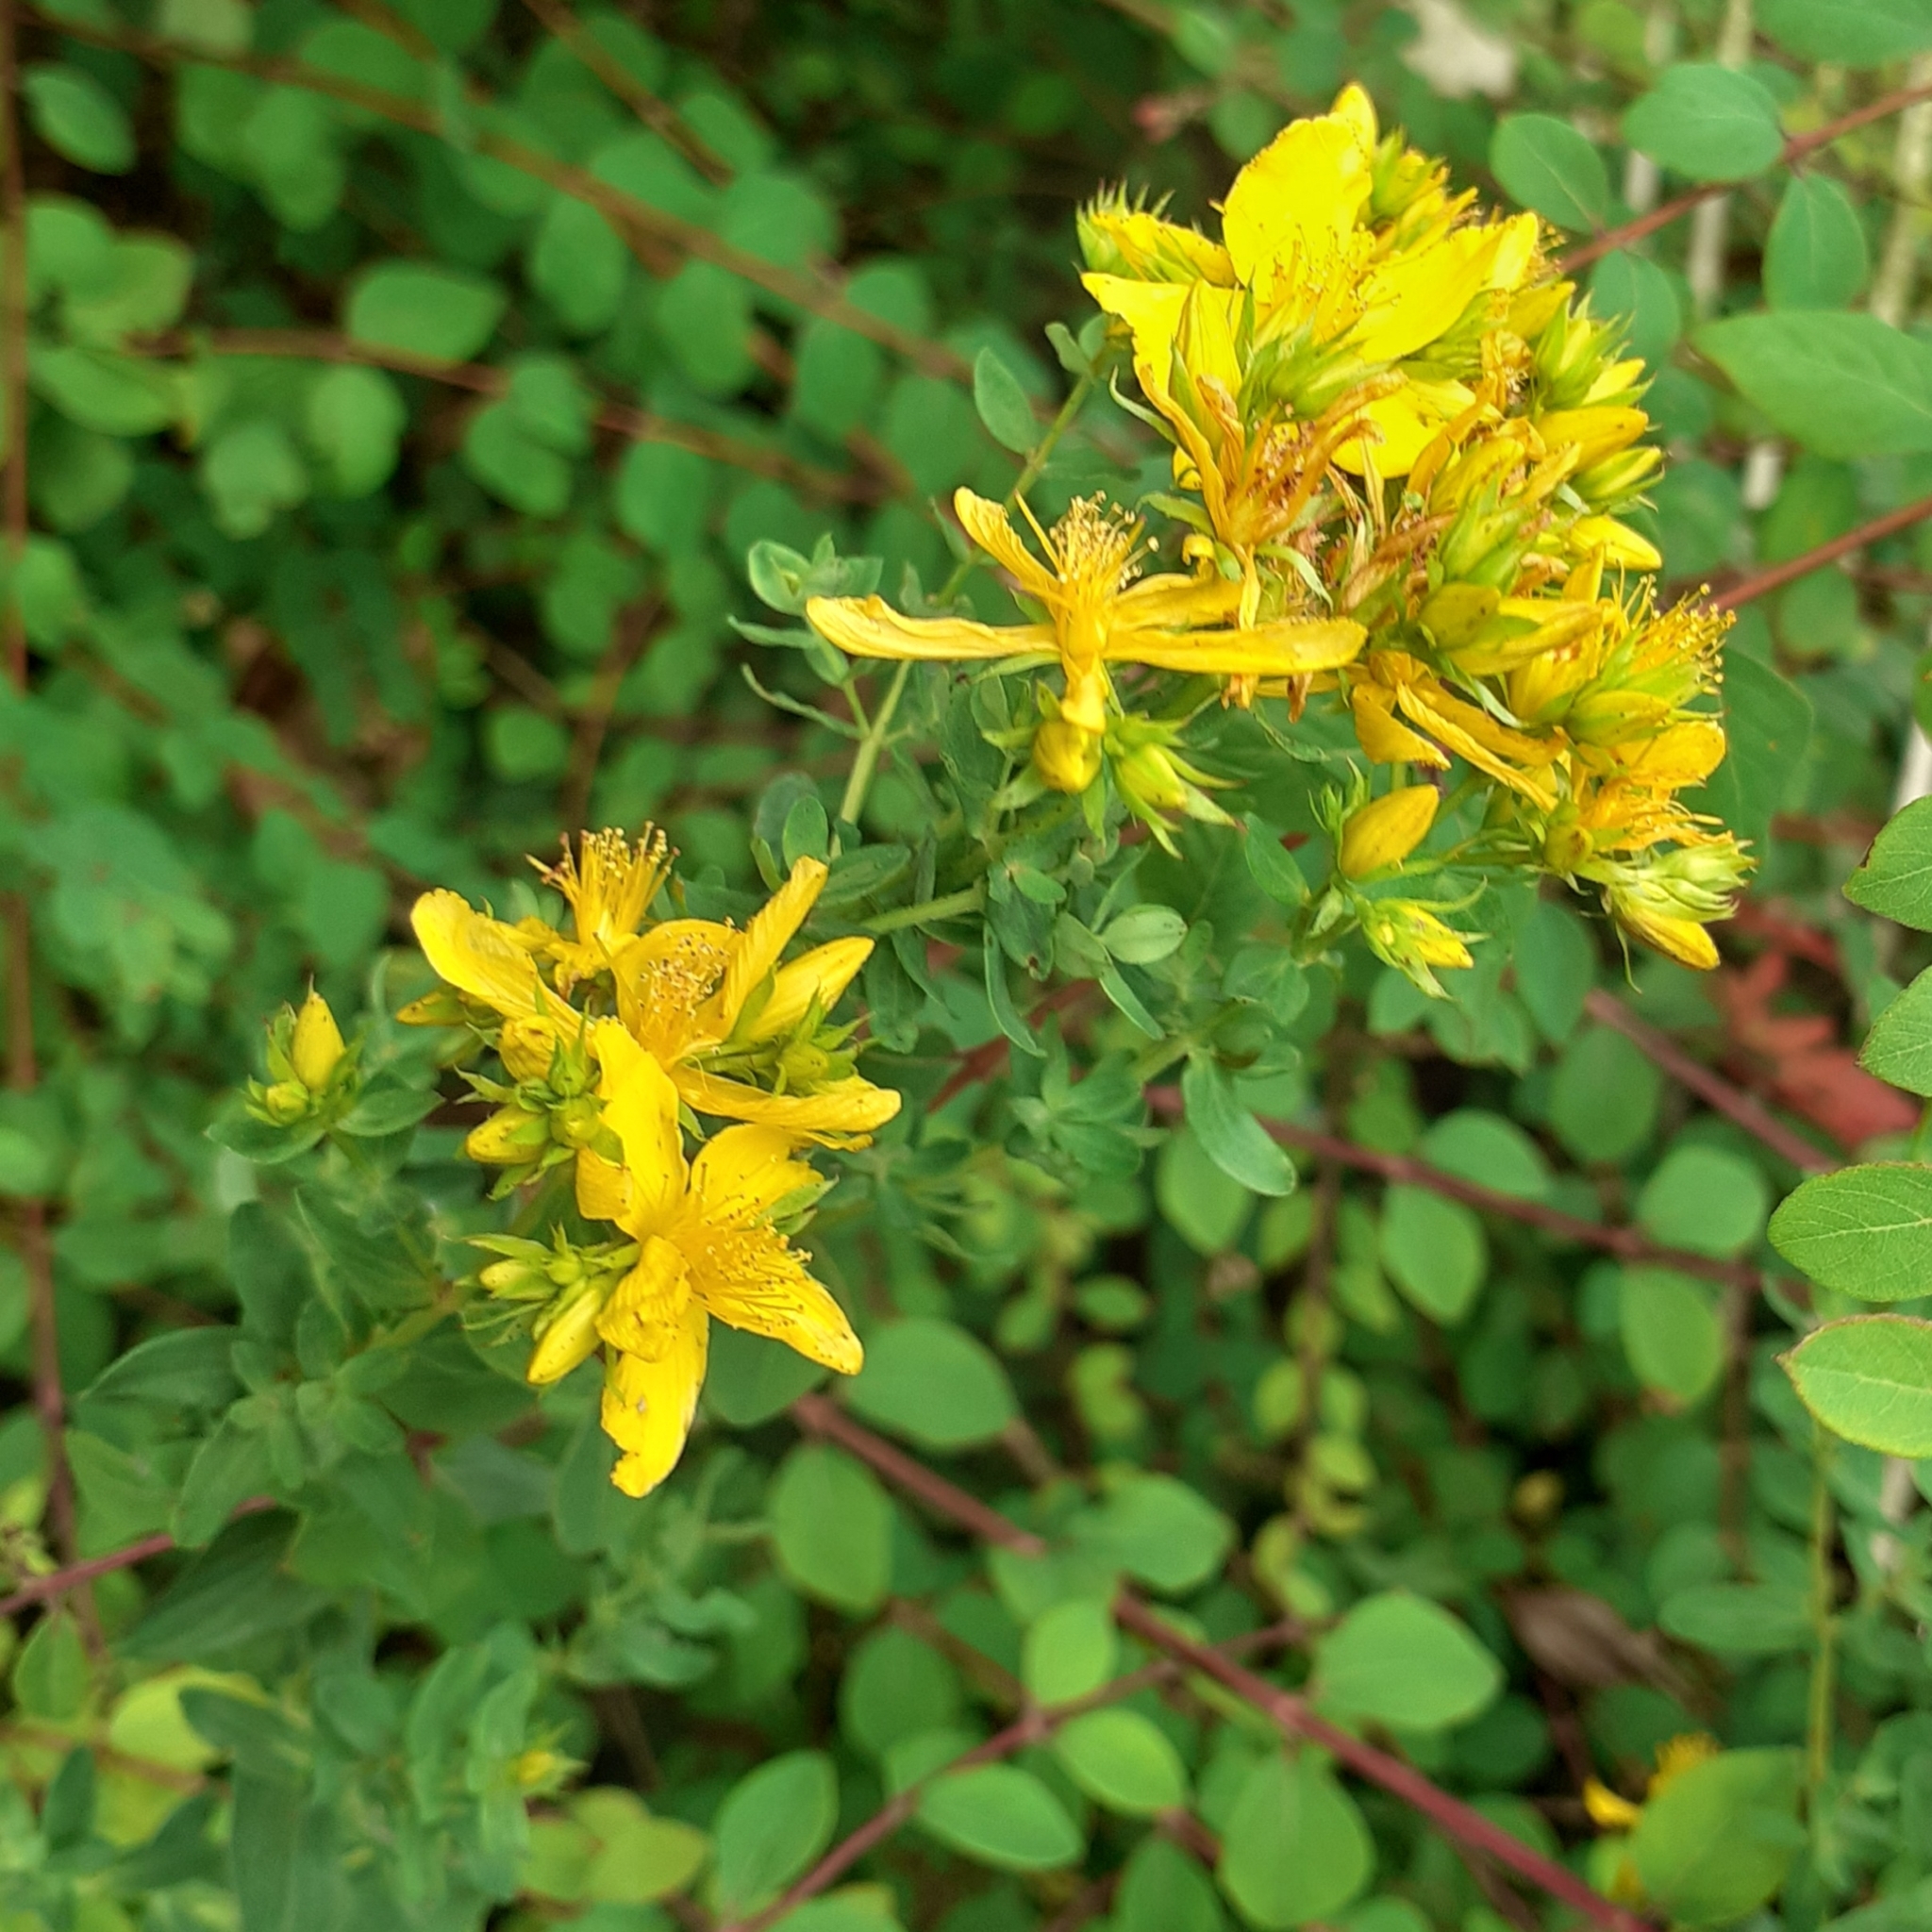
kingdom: Plantae
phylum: Tracheophyta
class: Magnoliopsida
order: Malpighiales
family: Hypericaceae
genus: Hypericum
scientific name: Hypericum perforatum
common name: Common st. johnswort
